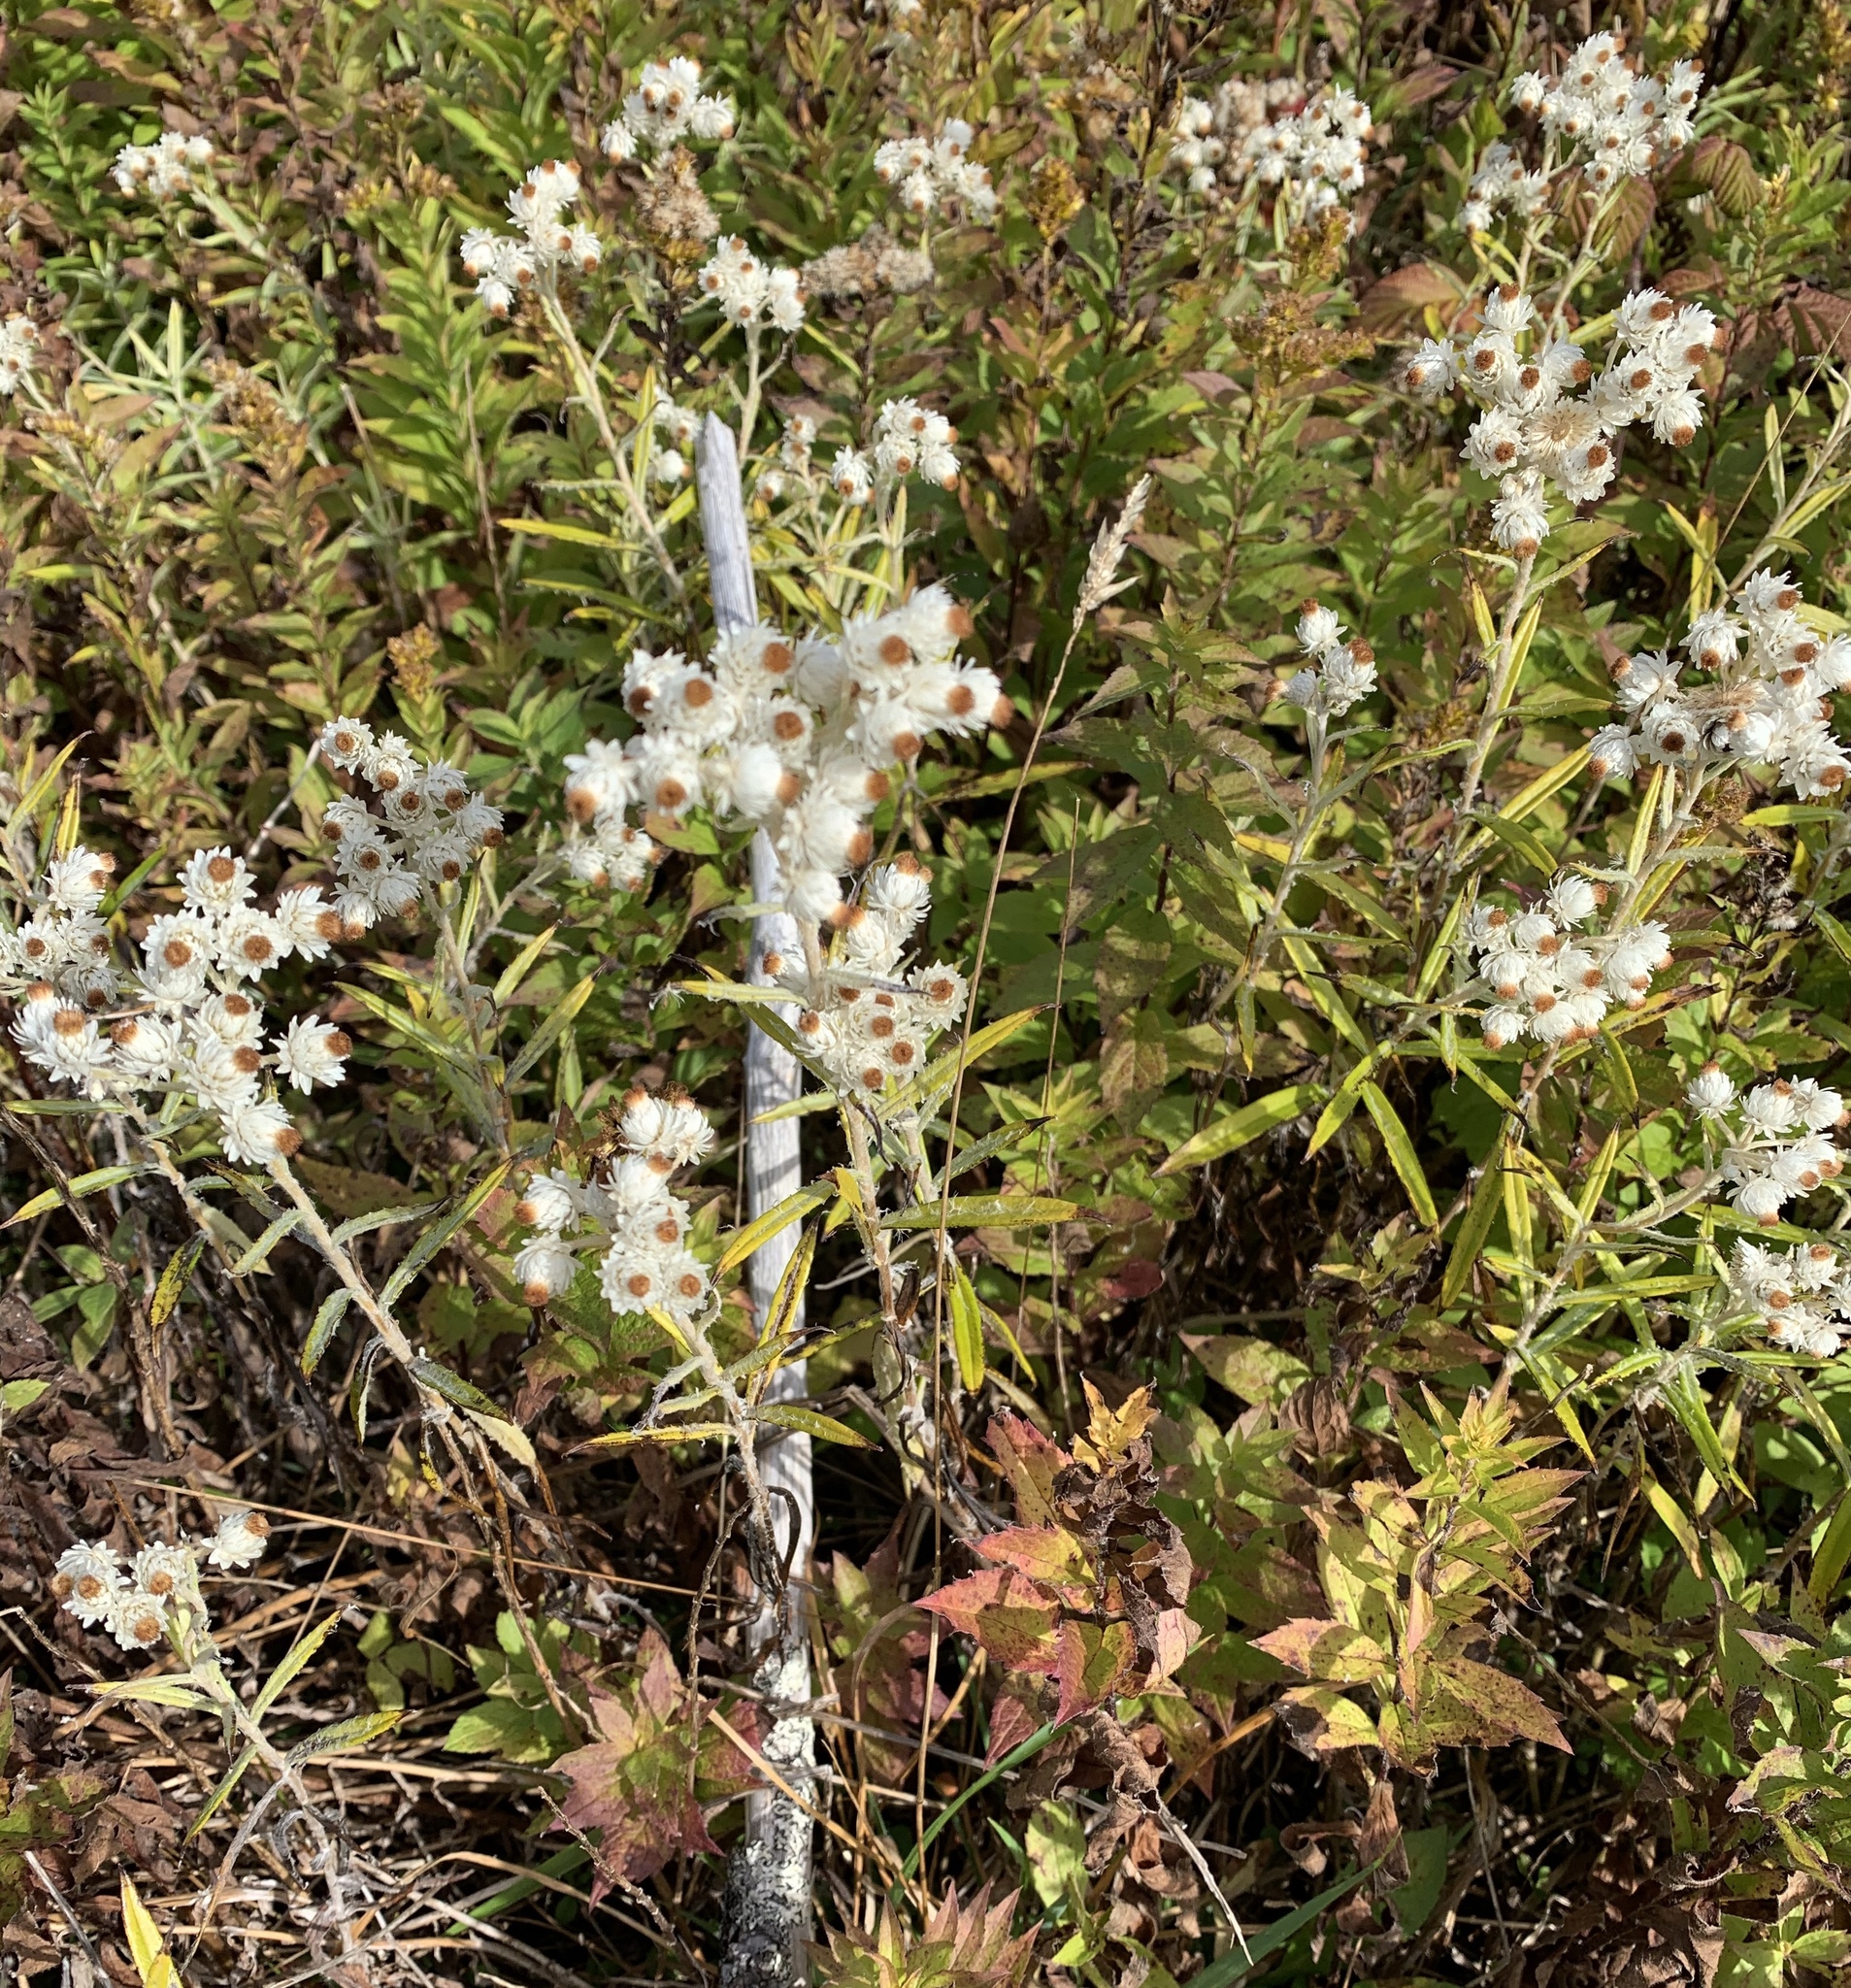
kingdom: Plantae
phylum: Tracheophyta
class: Magnoliopsida
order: Asterales
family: Asteraceae
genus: Anaphalis
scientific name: Anaphalis margaritacea
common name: Pearly everlasting
